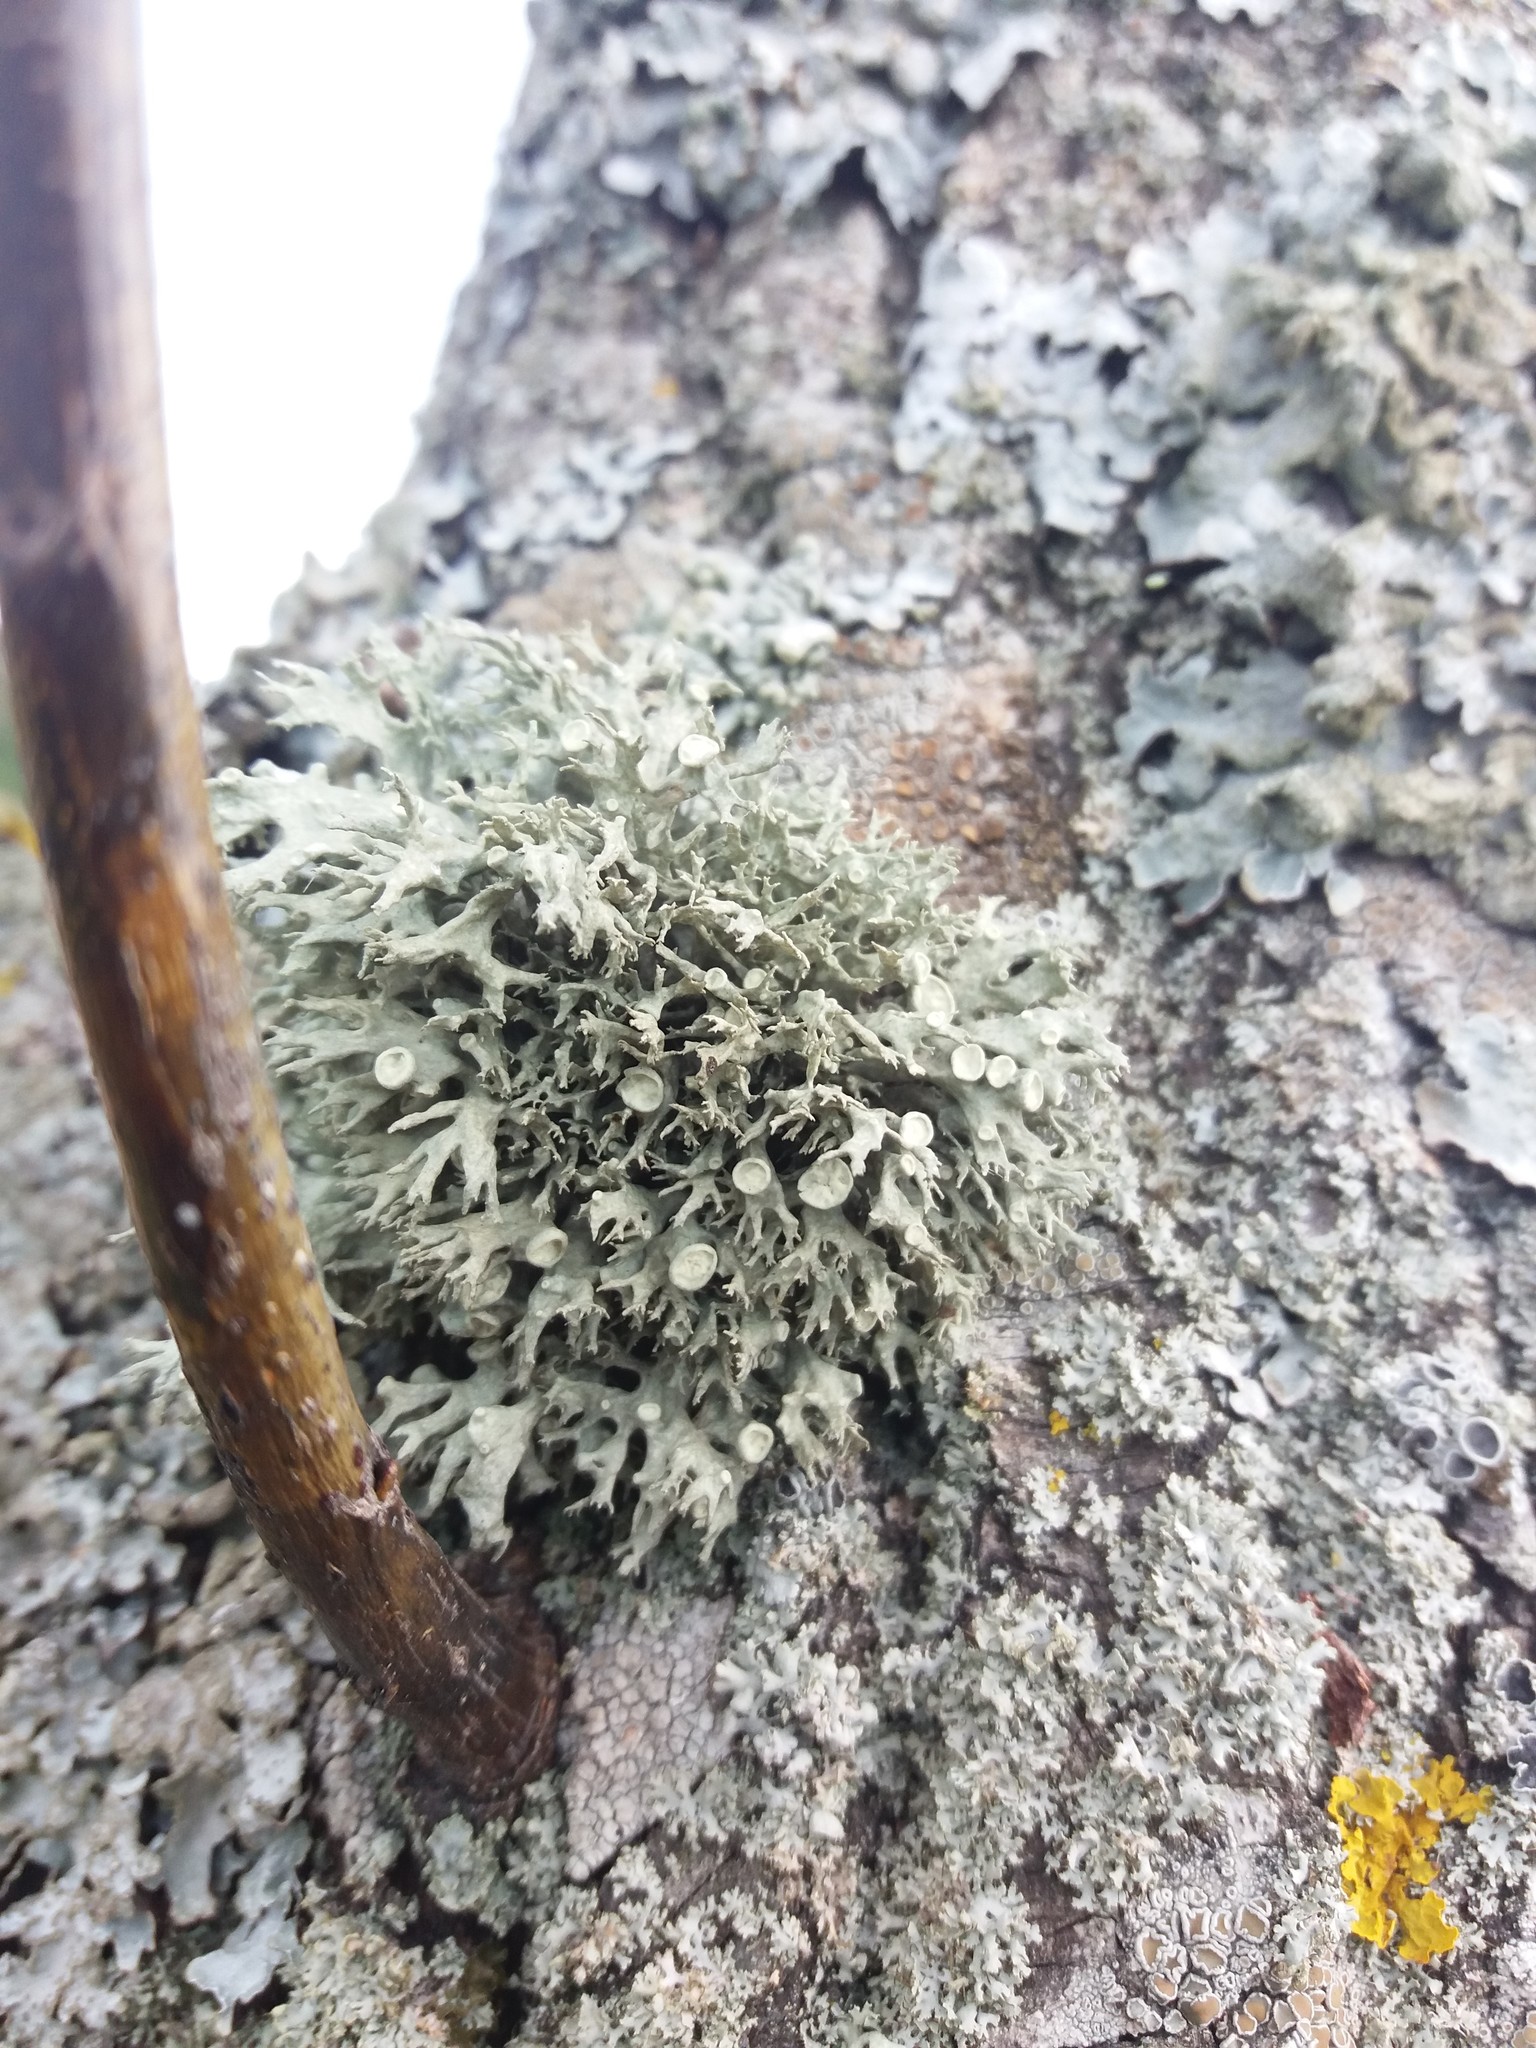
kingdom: Fungi
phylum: Ascomycota
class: Lecanoromycetes
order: Lecanorales
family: Ramalinaceae
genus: Ramalina
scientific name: Ramalina fastigiata
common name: Dotted ribbon lichen
